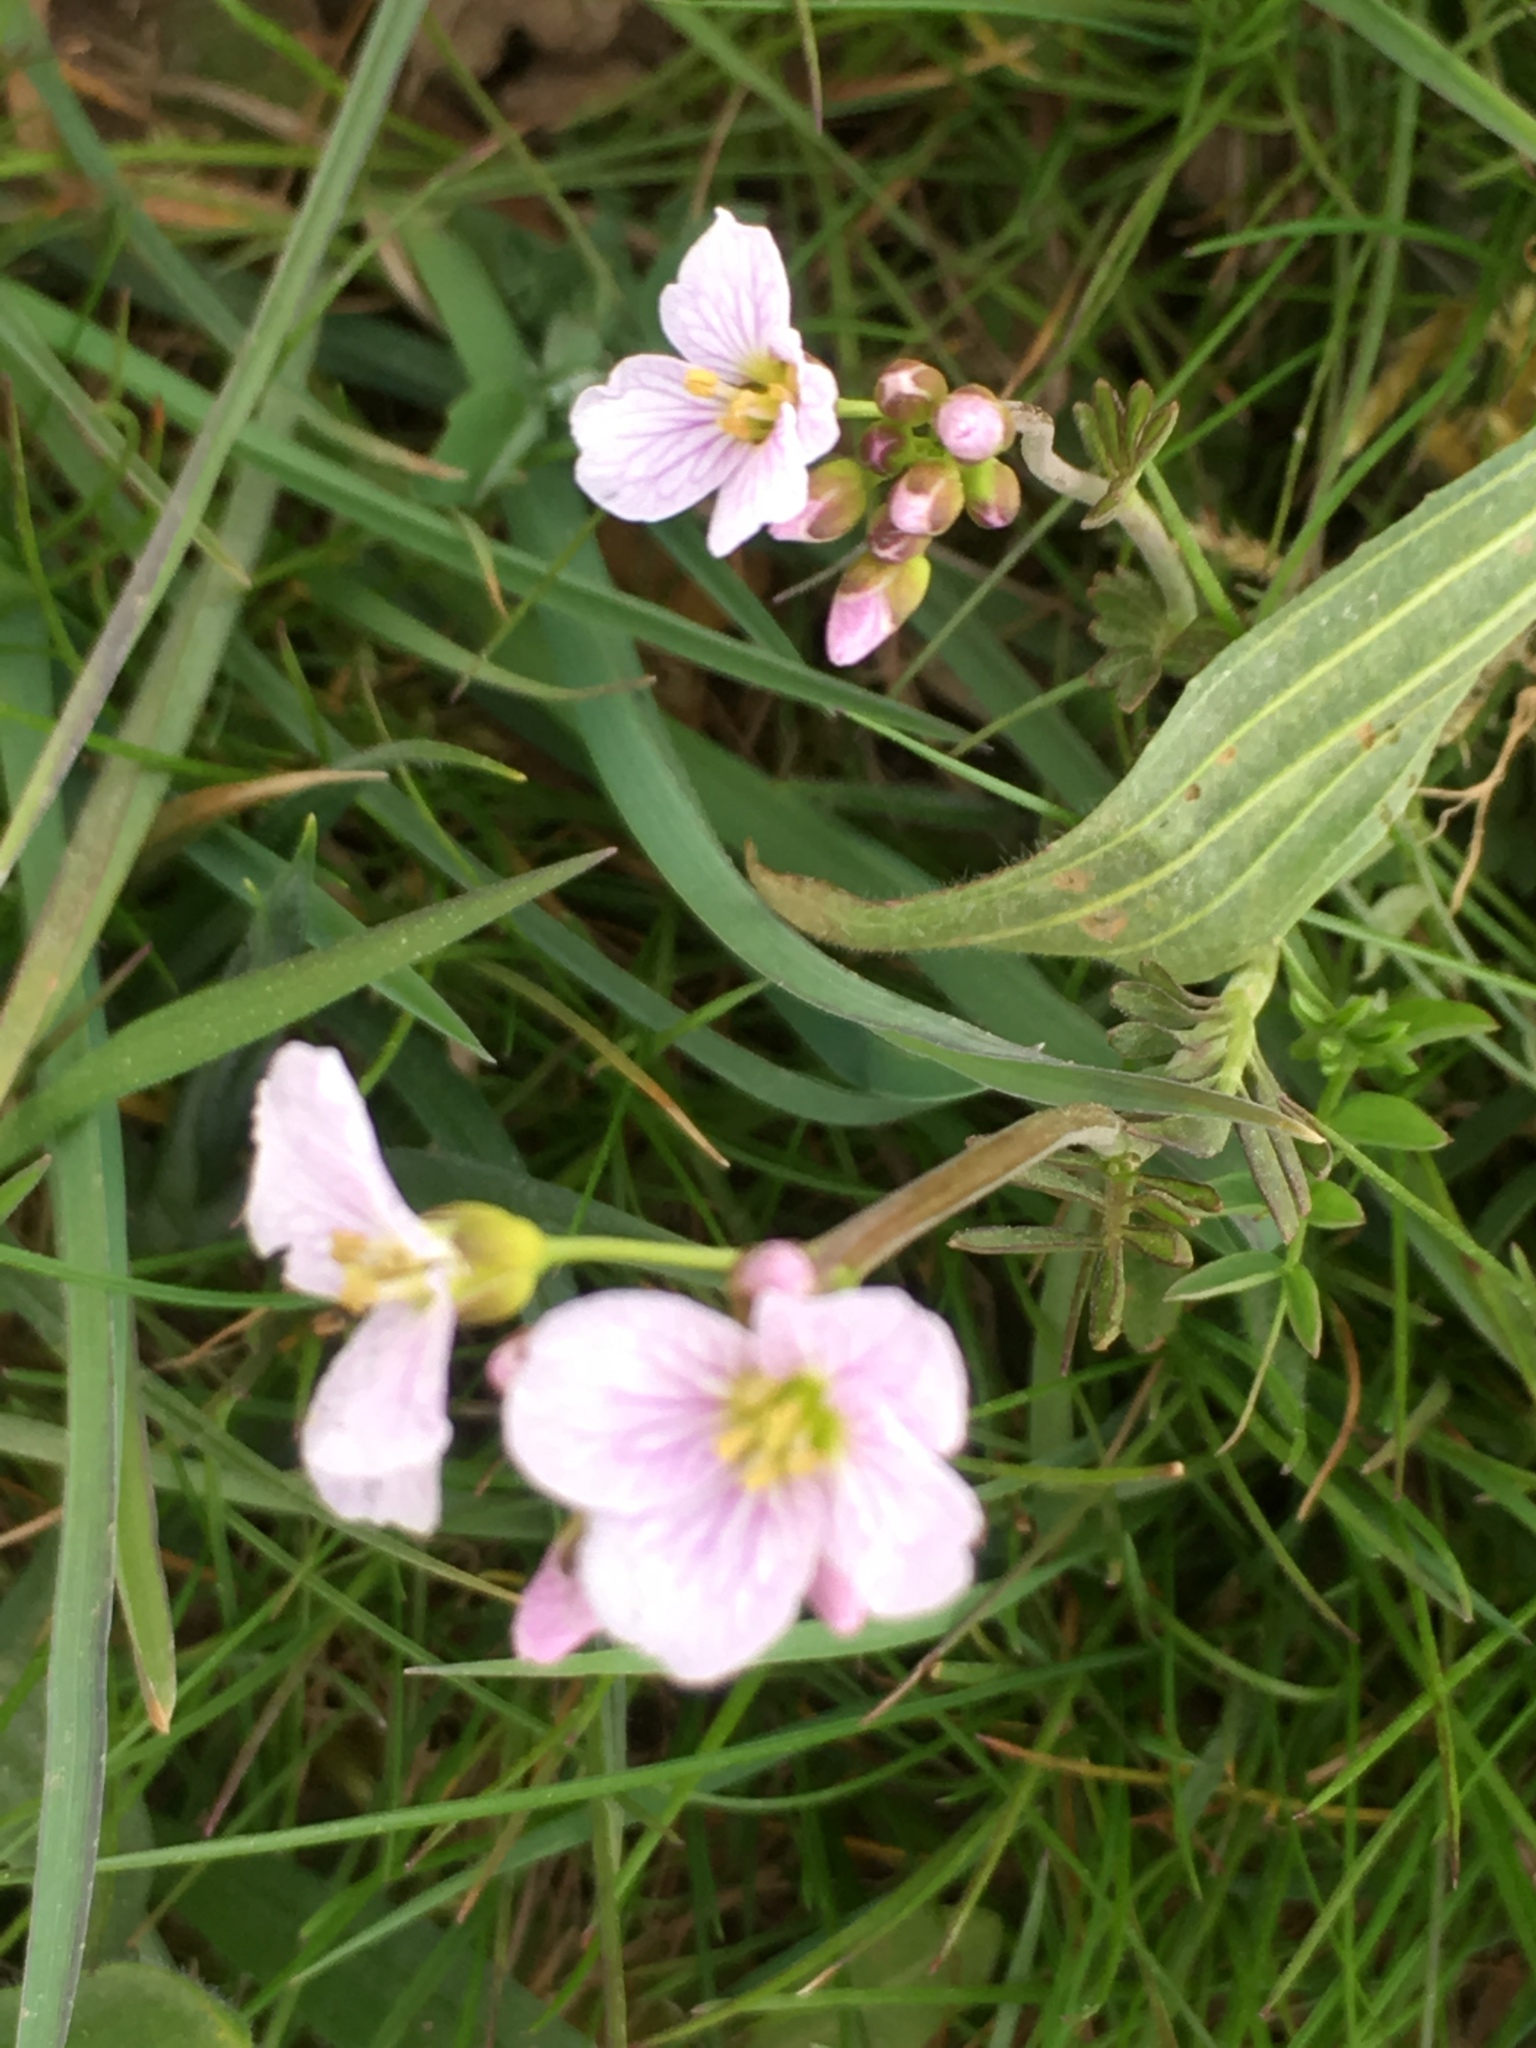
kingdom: Plantae
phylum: Tracheophyta
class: Magnoliopsida
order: Brassicales
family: Brassicaceae
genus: Cardamine
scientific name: Cardamine pratensis
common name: Cuckoo flower
